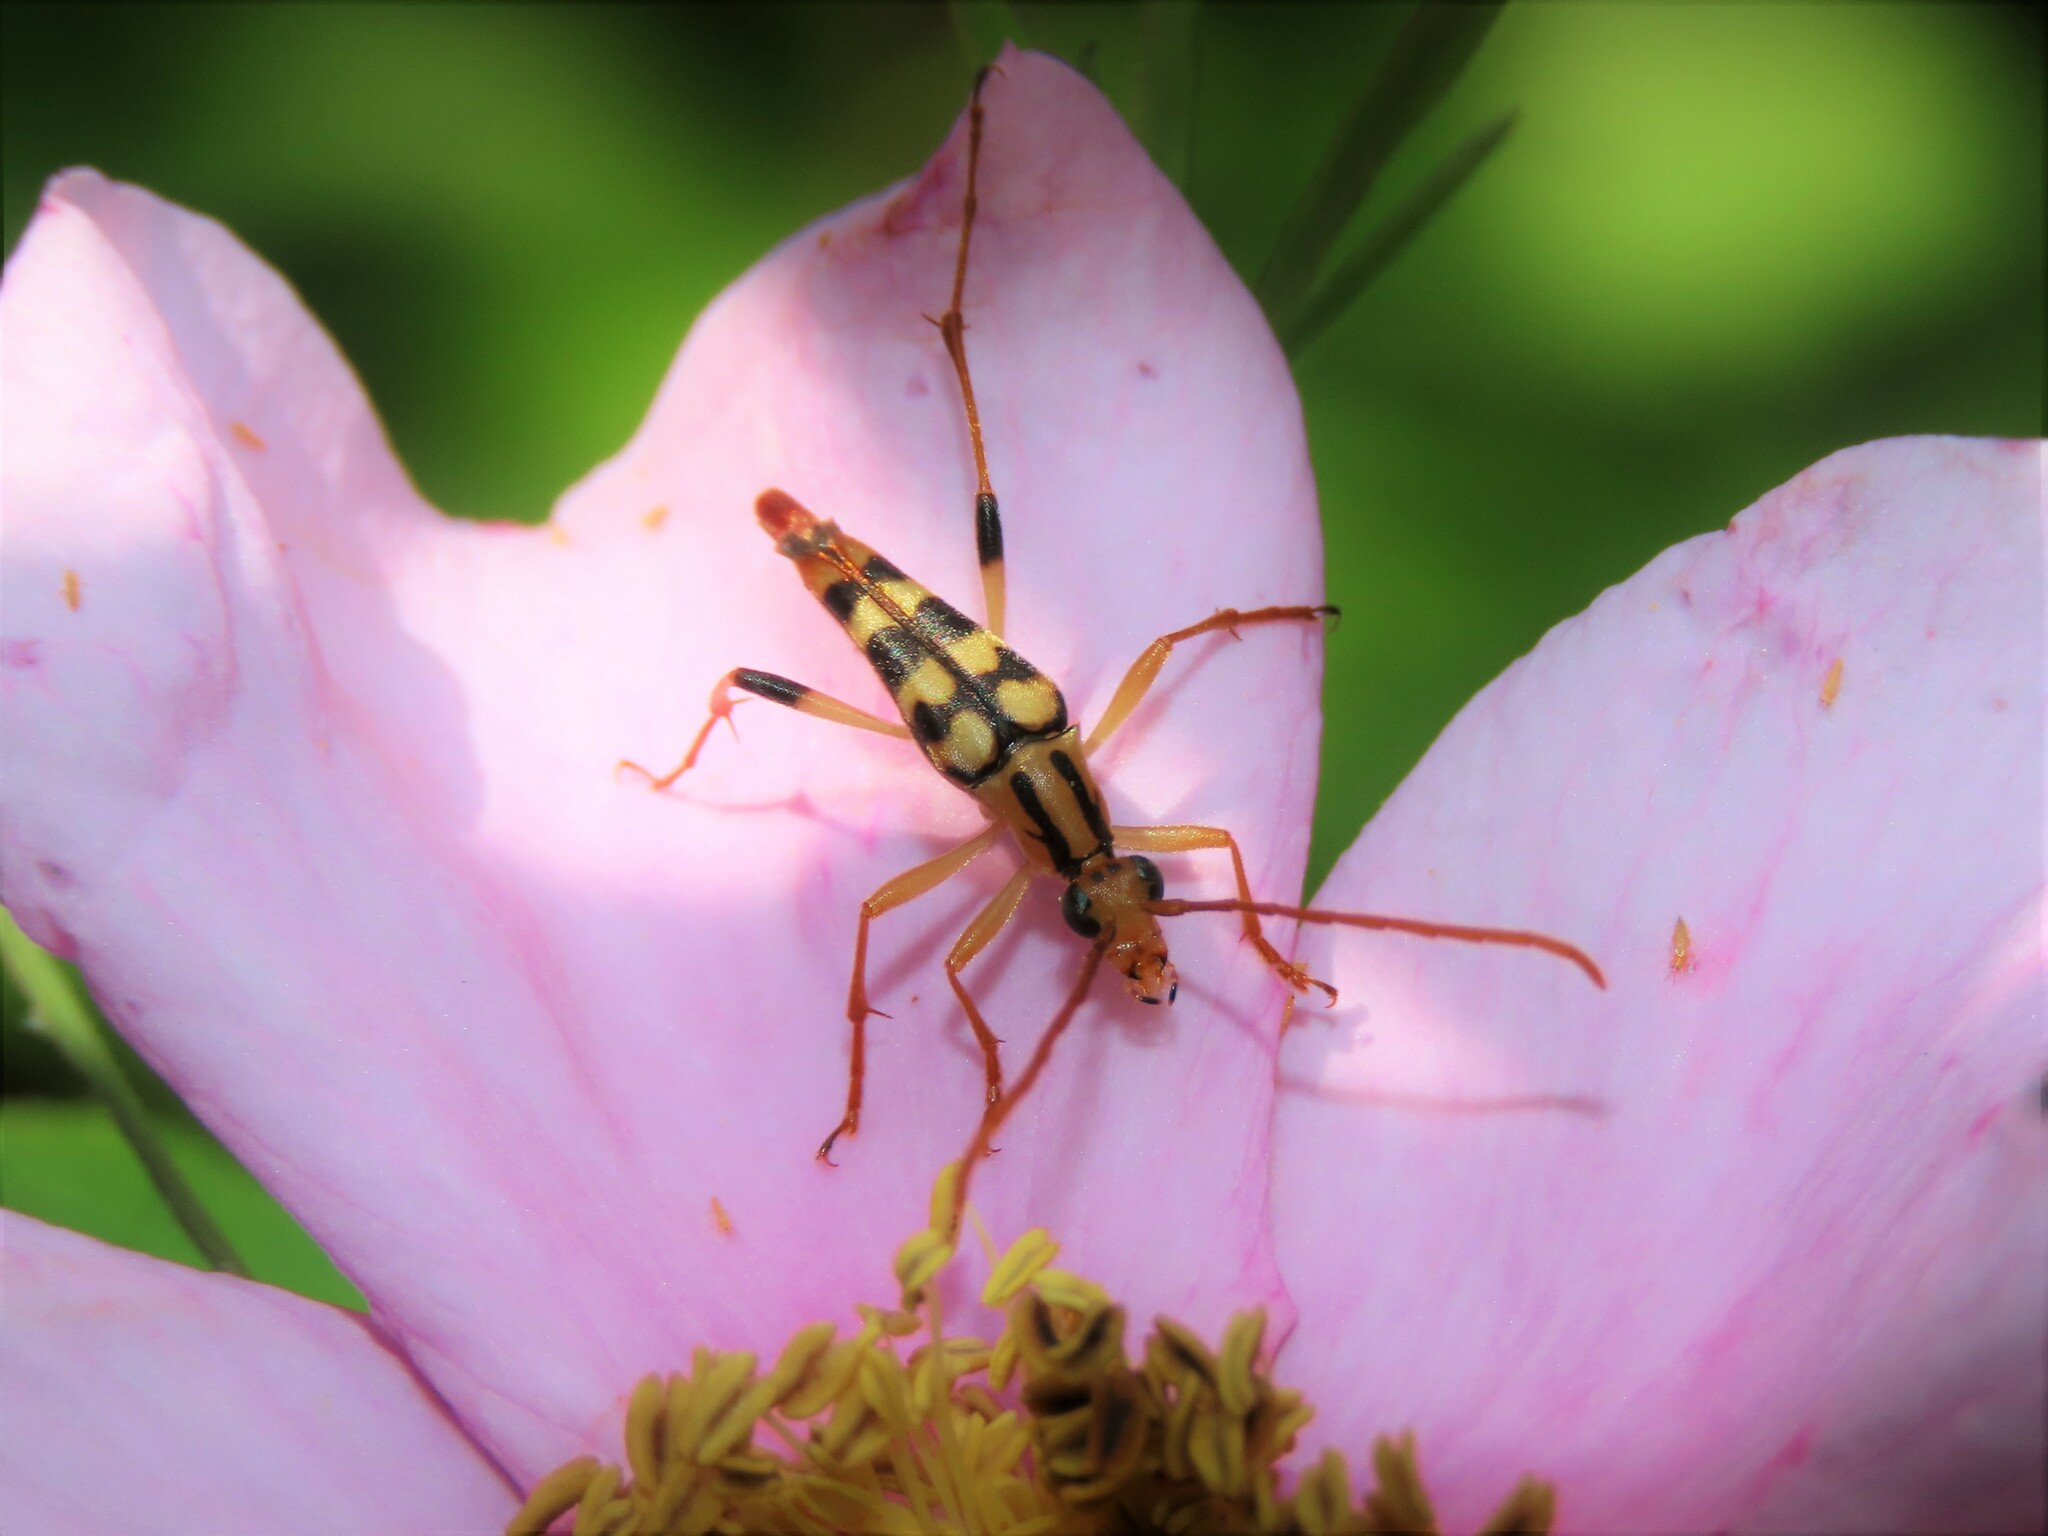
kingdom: Animalia
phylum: Arthropoda
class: Insecta
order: Coleoptera
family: Cerambycidae
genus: Strangalia
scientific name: Strangalia luteicornis
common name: Yellow-horned flower longhorn beetle
